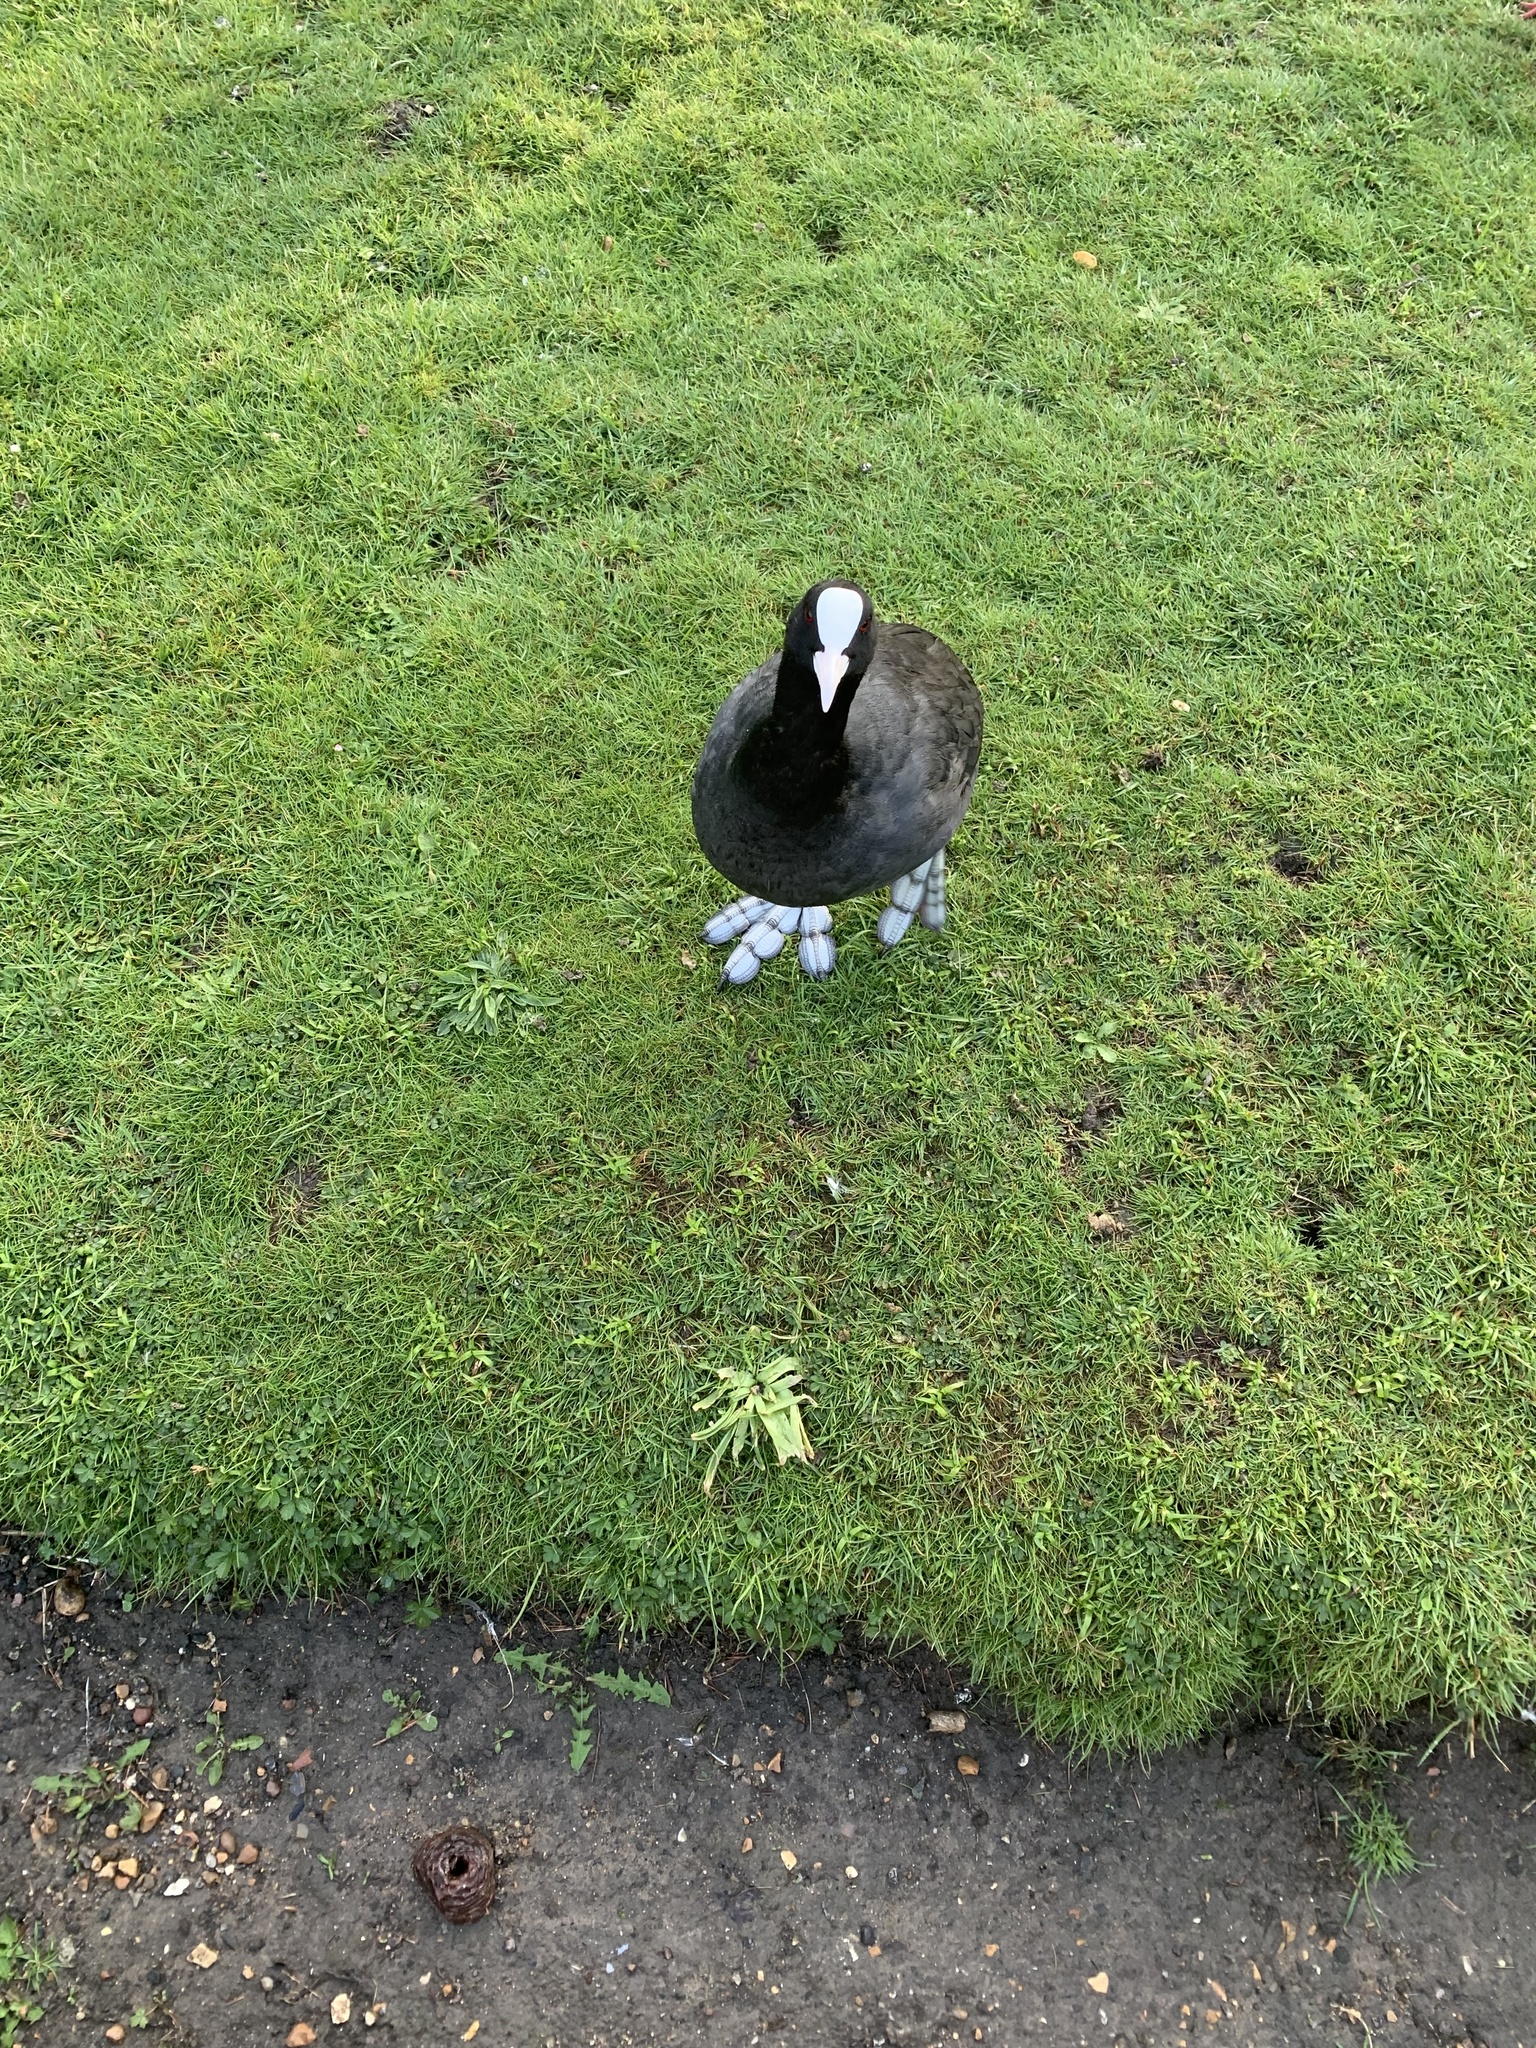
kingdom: Animalia
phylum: Chordata
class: Aves
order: Gruiformes
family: Rallidae
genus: Fulica
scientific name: Fulica atra
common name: Eurasian coot
